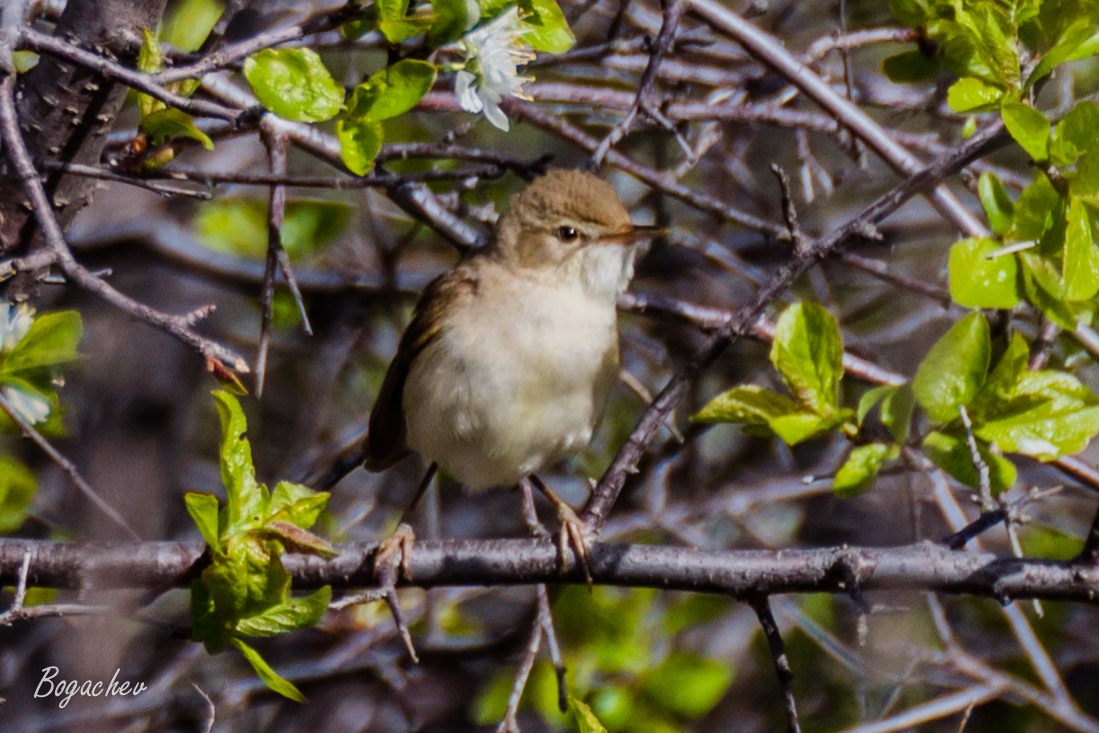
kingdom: Animalia
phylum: Chordata
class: Aves
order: Passeriformes
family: Acrocephalidae
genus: Acrocephalus
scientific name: Acrocephalus dumetorum
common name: Blyth's reed warbler
